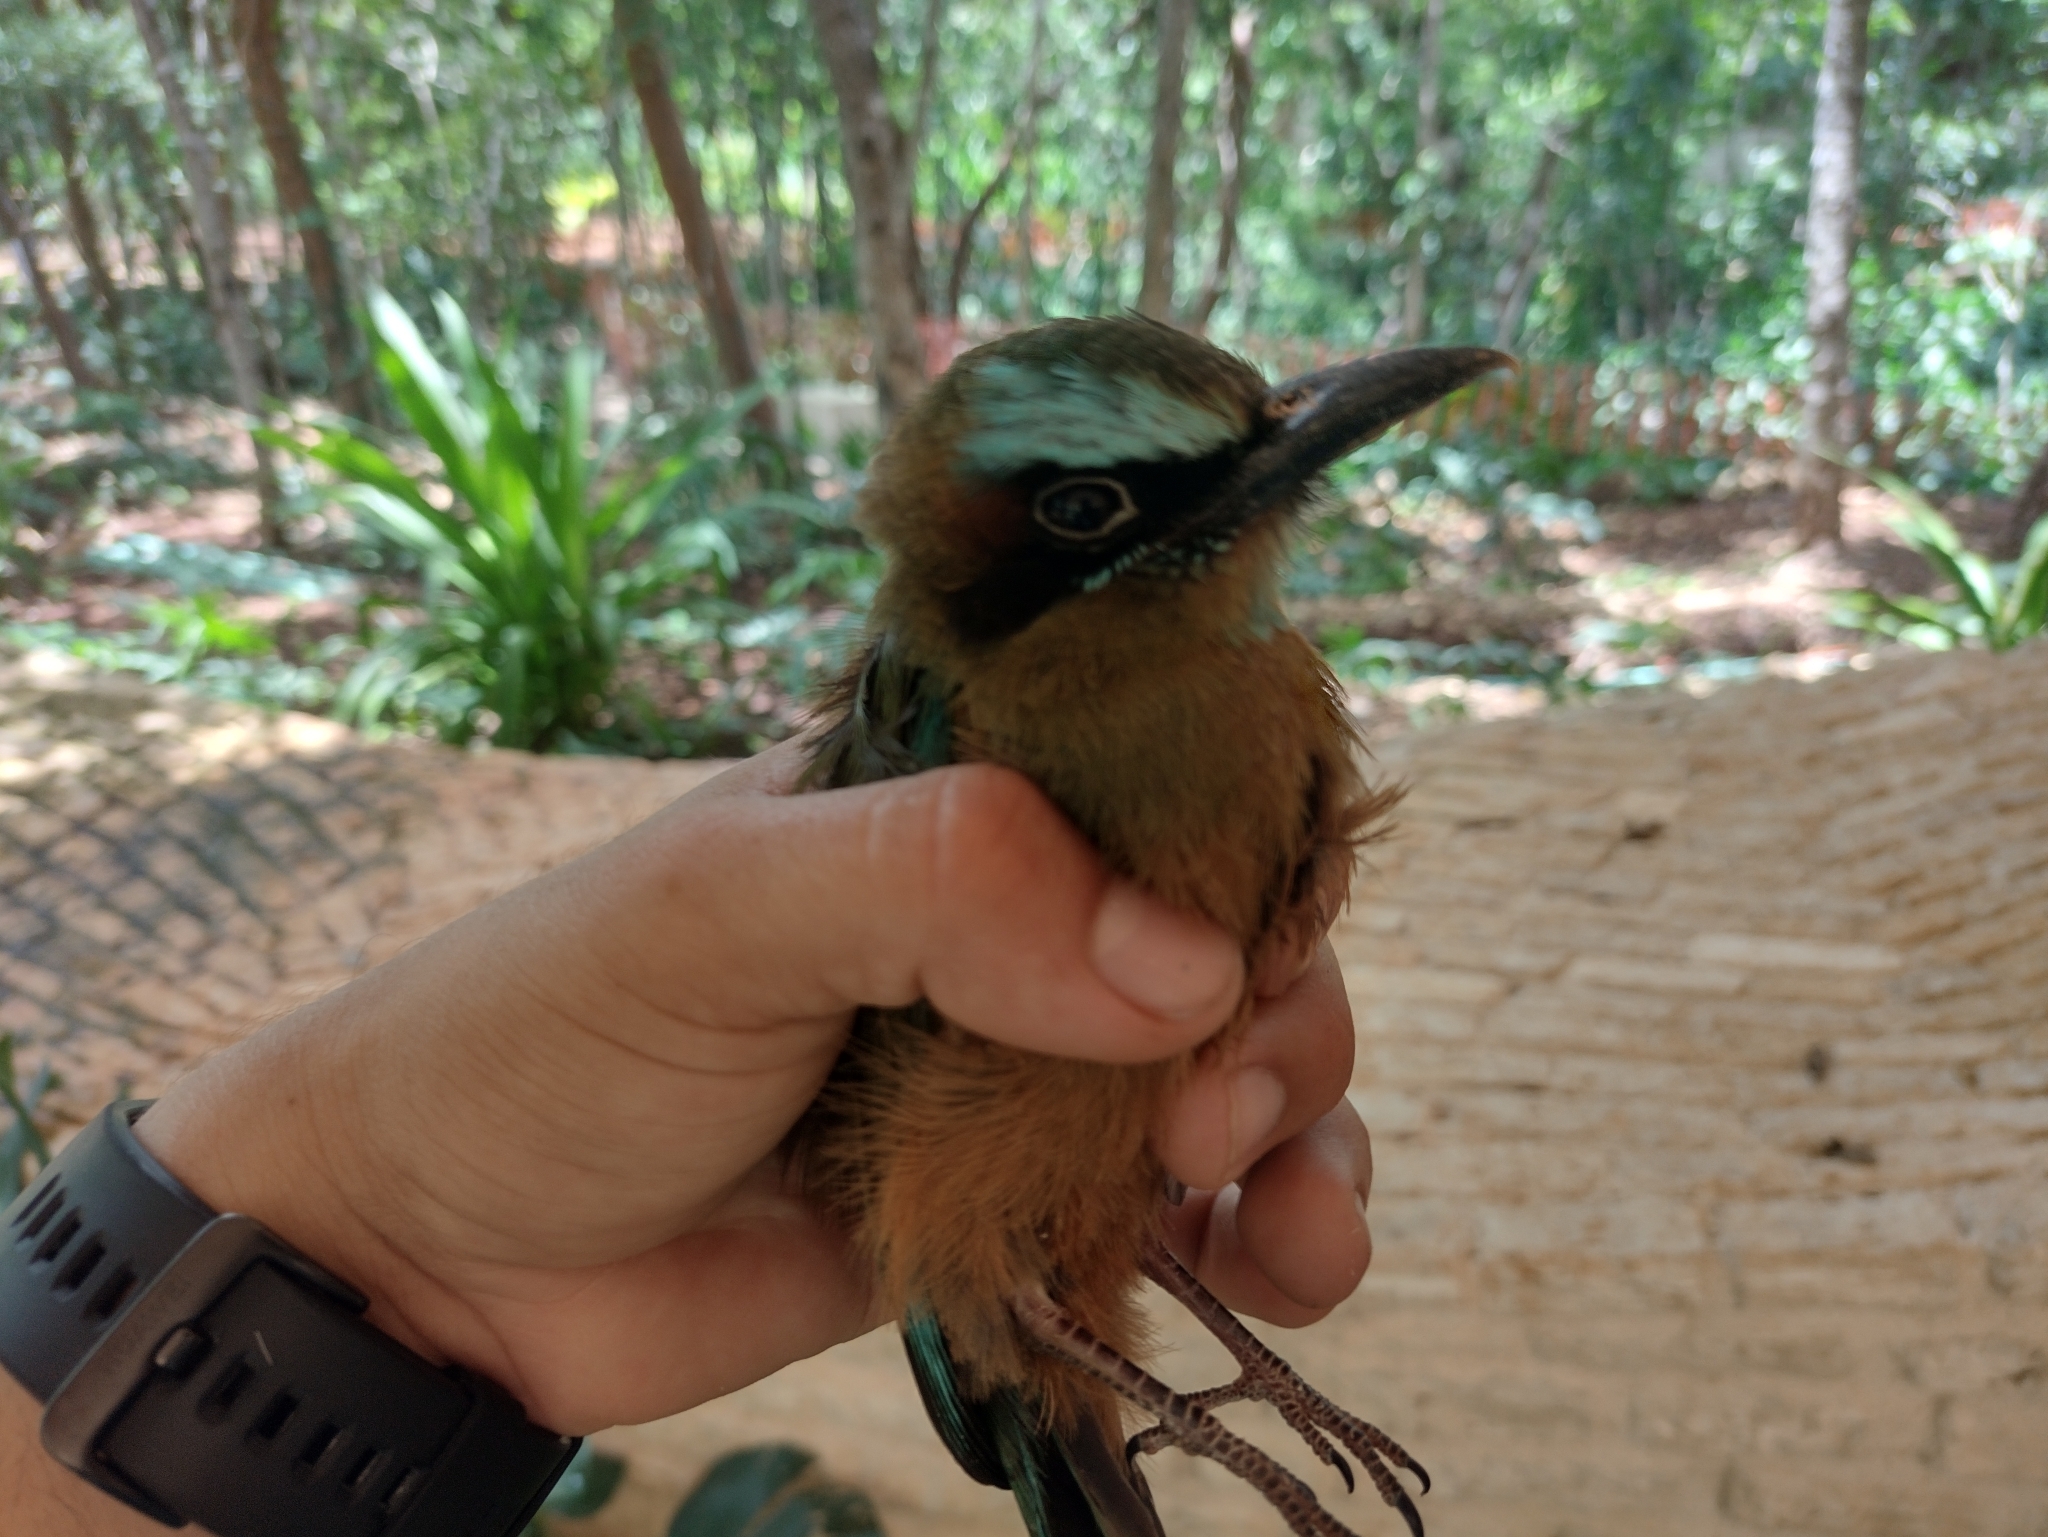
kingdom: Animalia
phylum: Chordata
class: Aves
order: Coraciiformes
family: Momotidae
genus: Eumomota
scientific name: Eumomota superciliosa
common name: Turquoise-browed motmot
